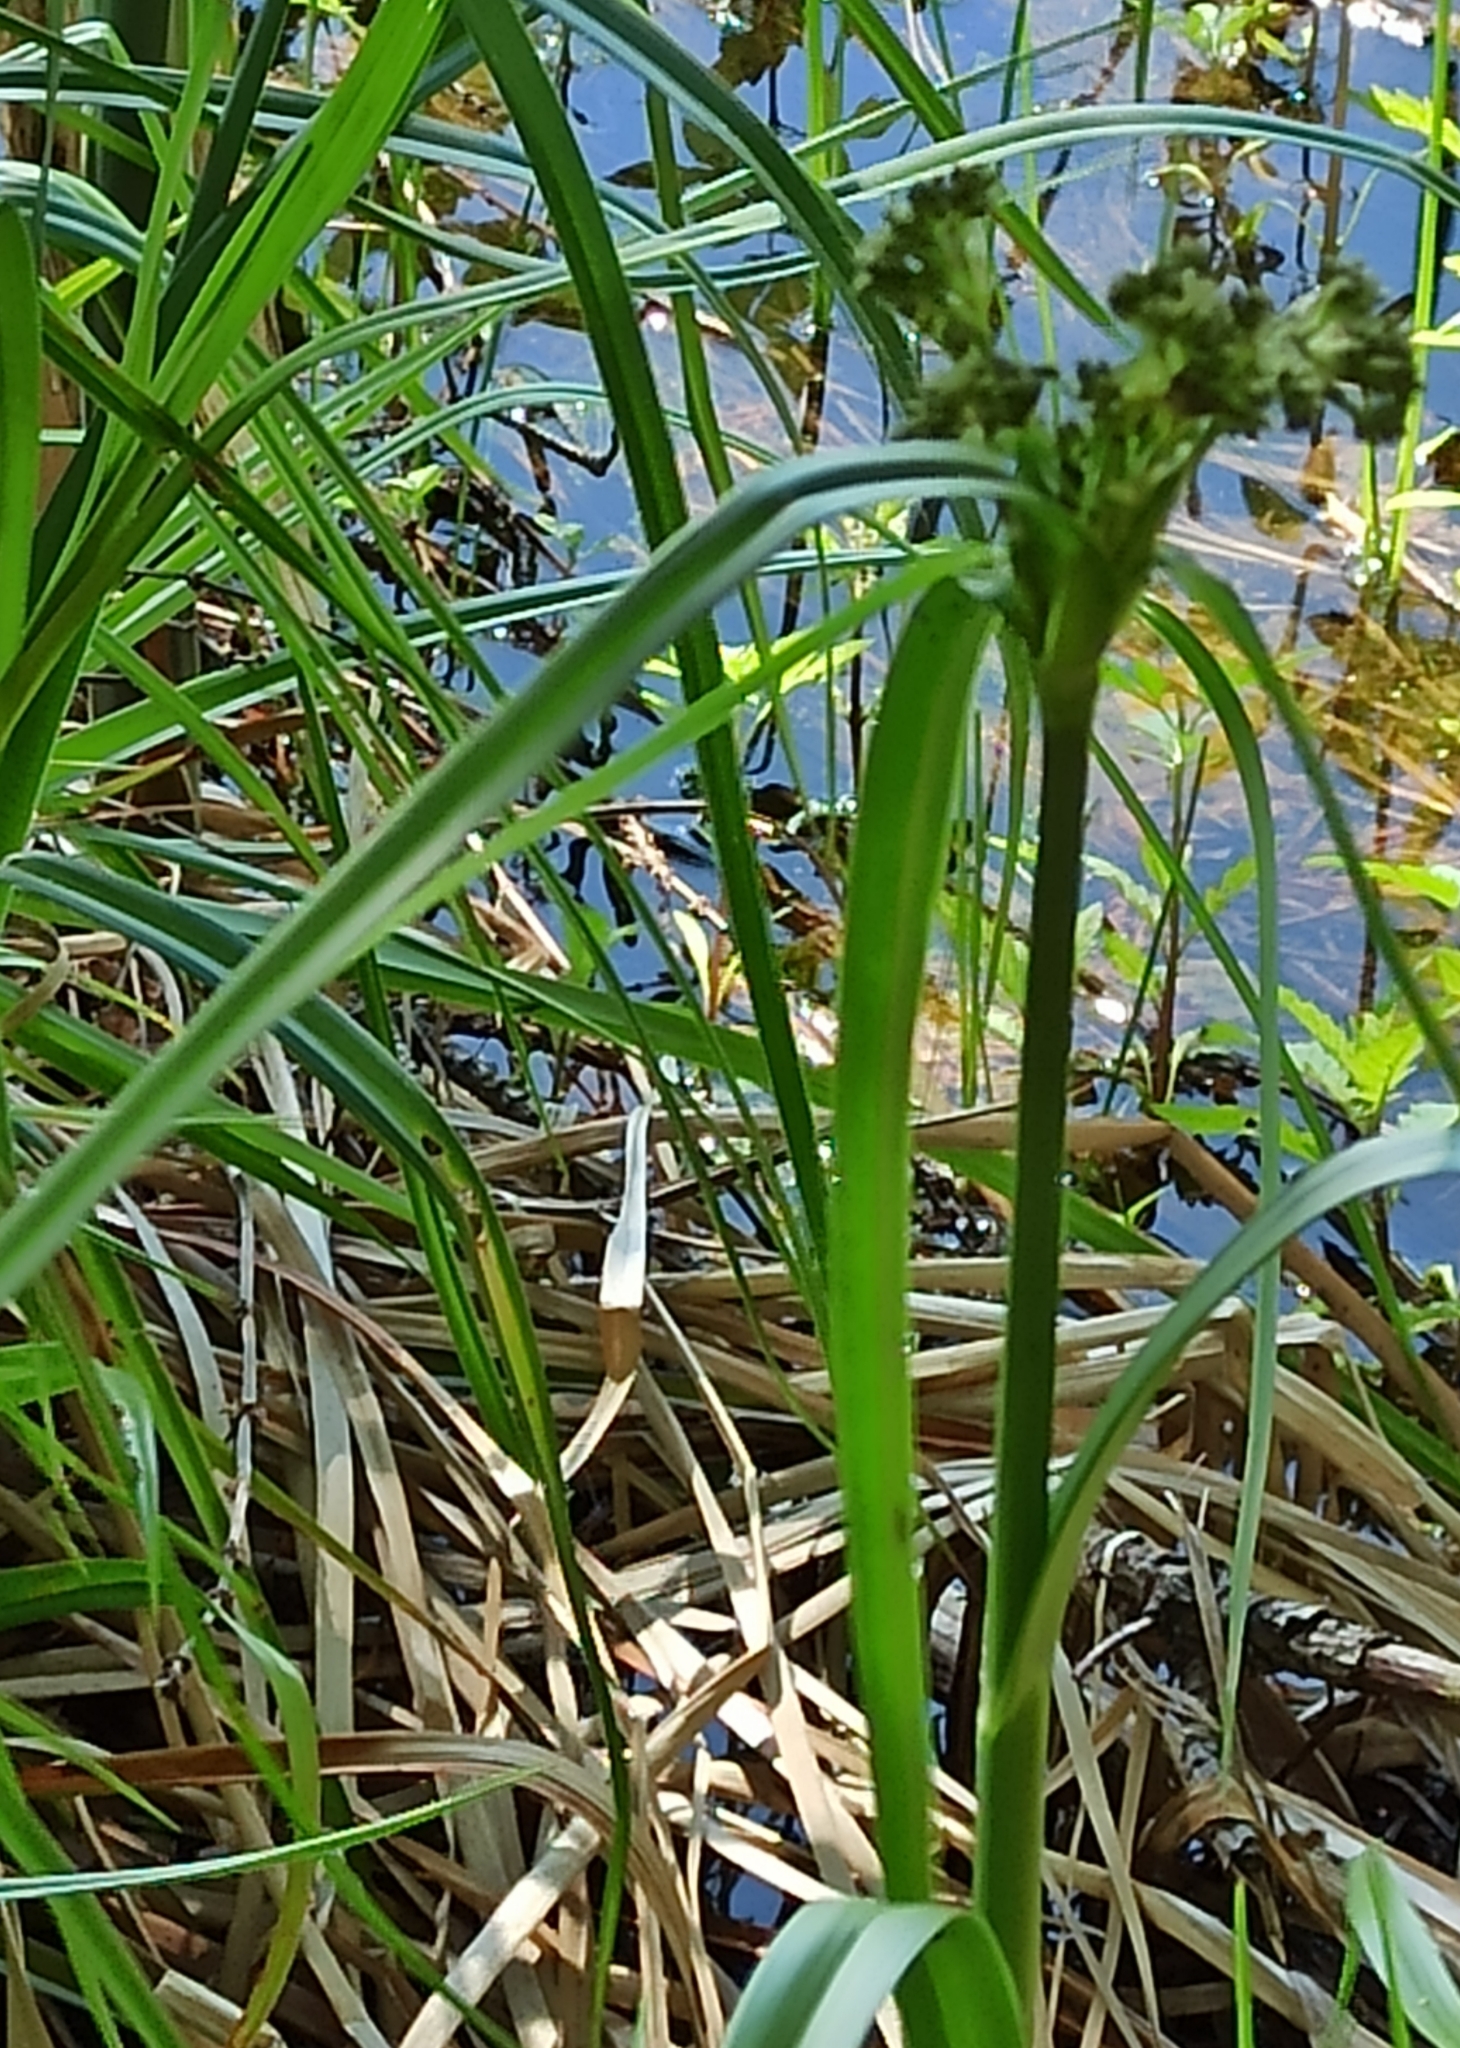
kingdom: Plantae
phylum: Tracheophyta
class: Liliopsida
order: Poales
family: Cyperaceae
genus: Scirpus
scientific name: Scirpus sylvaticus
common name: Wood club-rush
